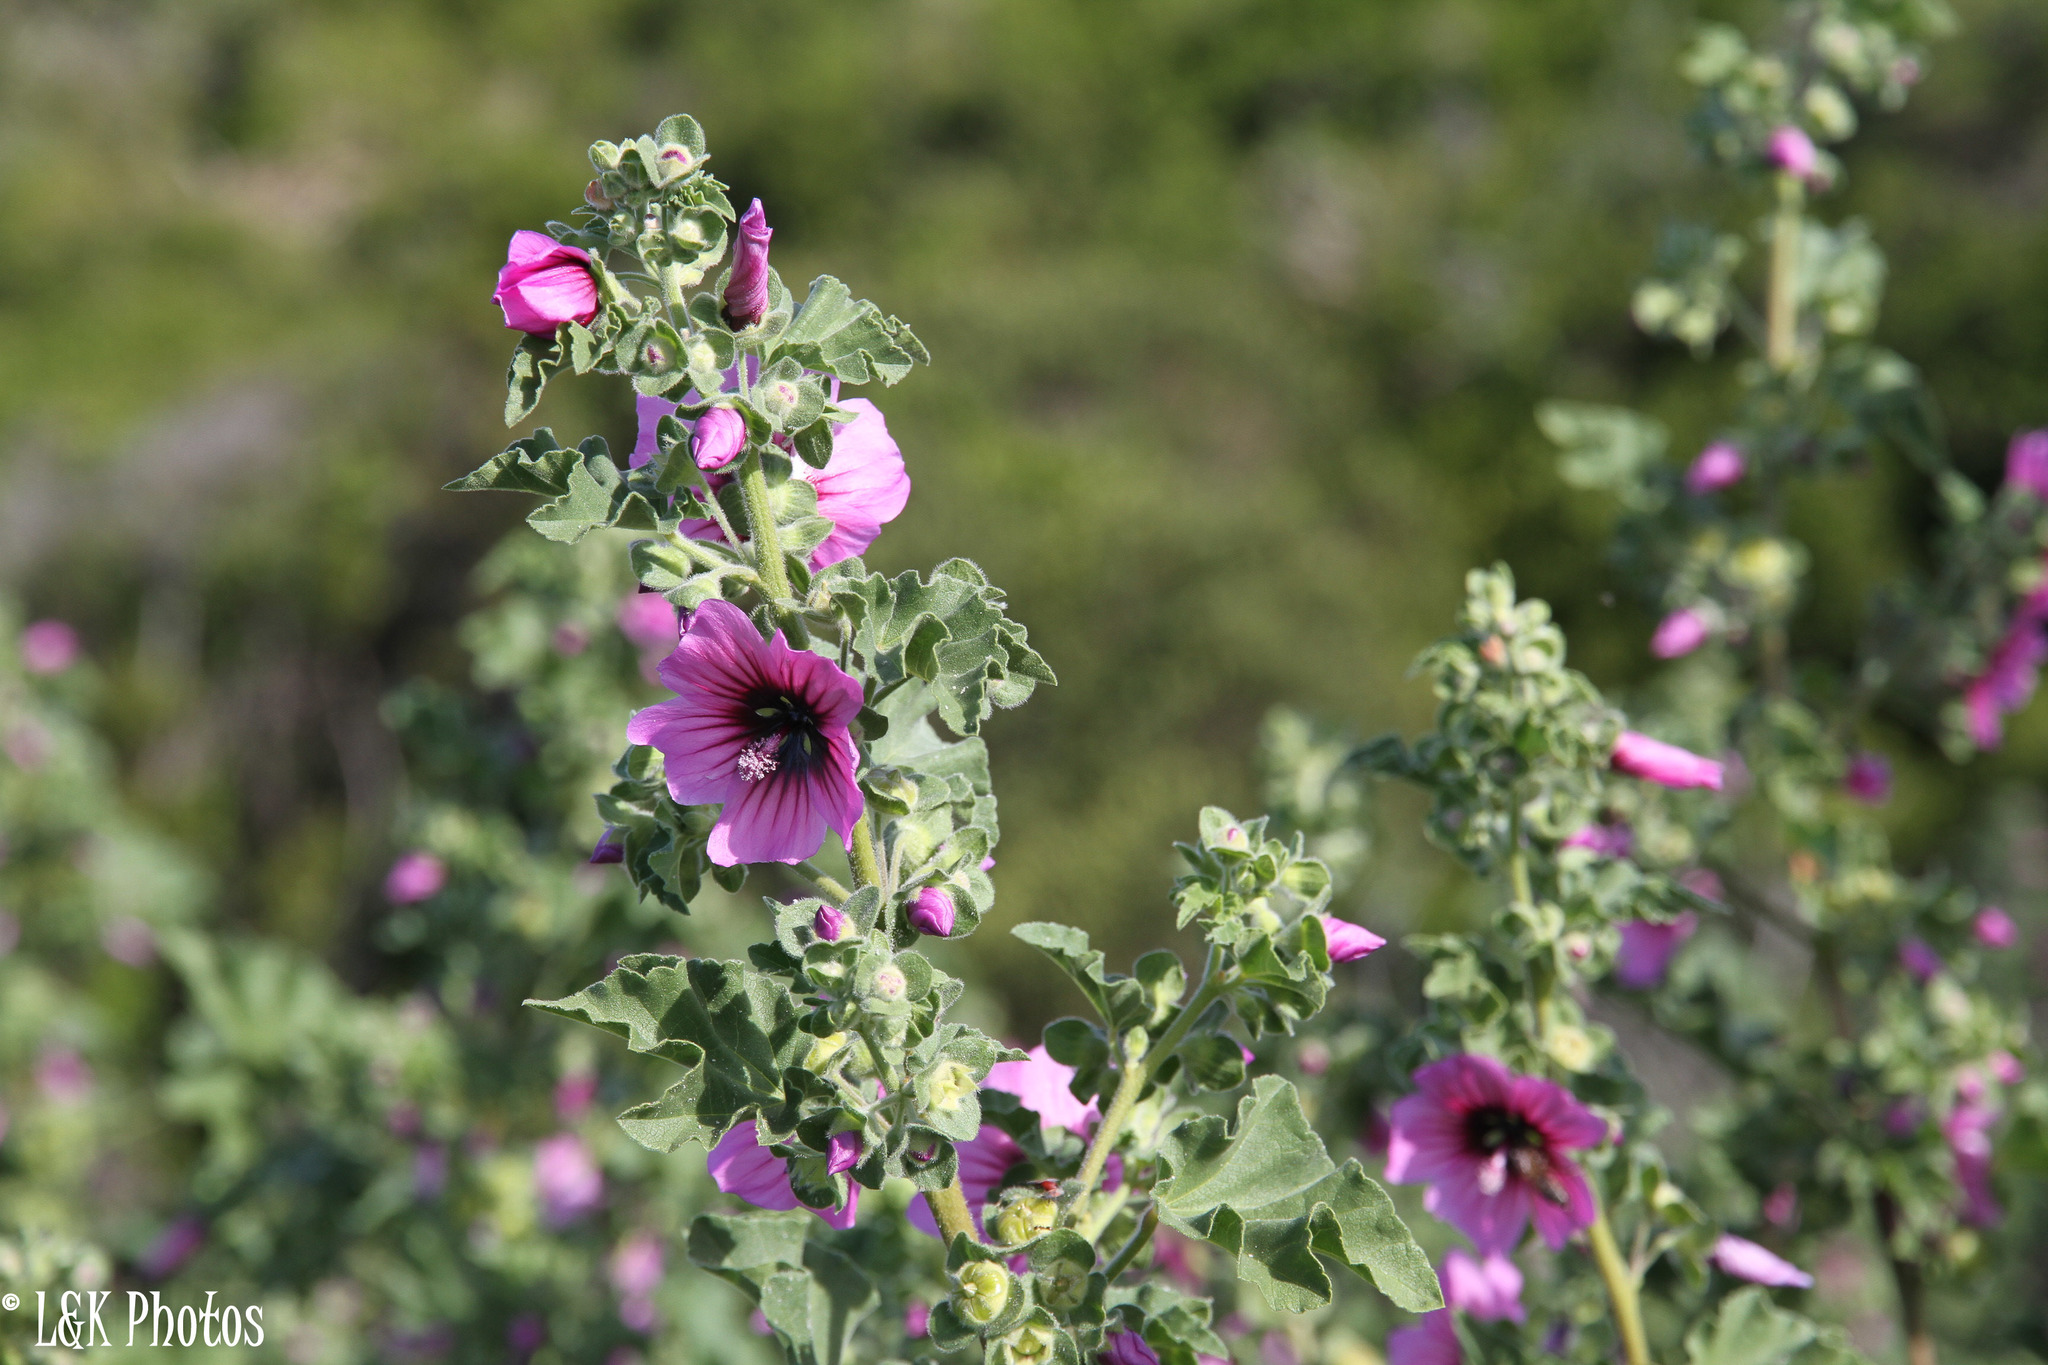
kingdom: Plantae
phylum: Tracheophyta
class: Magnoliopsida
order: Malvales
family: Malvaceae
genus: Malva
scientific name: Malva arborea
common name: Tree mallow
